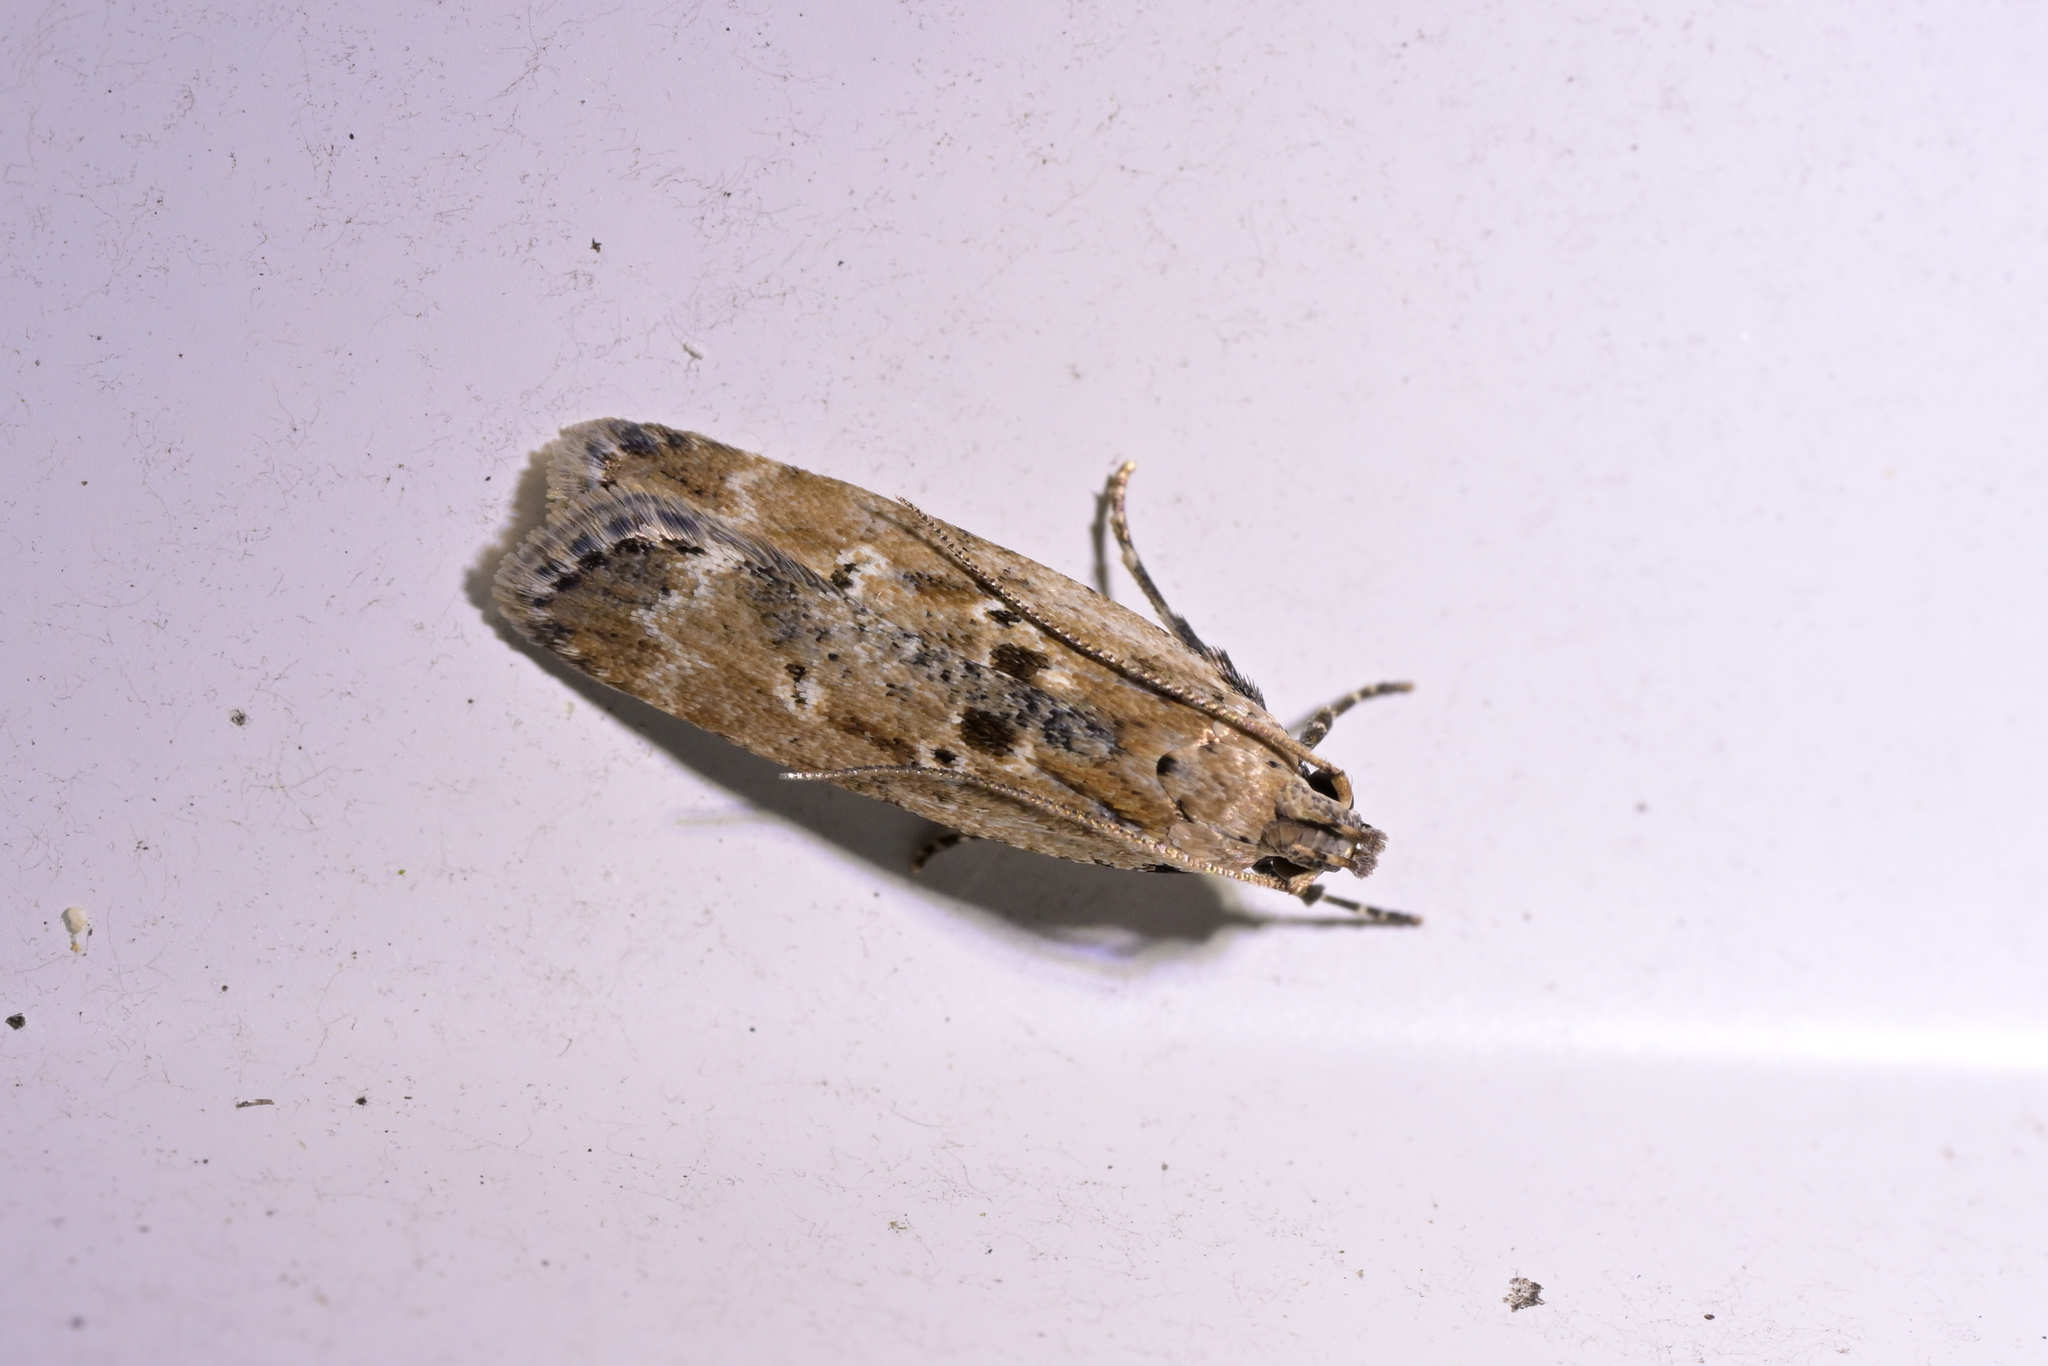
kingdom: Animalia
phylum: Arthropoda
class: Insecta
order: Lepidoptera
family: Gelechiidae
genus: Anisoplaca
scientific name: Anisoplaca achyrota
